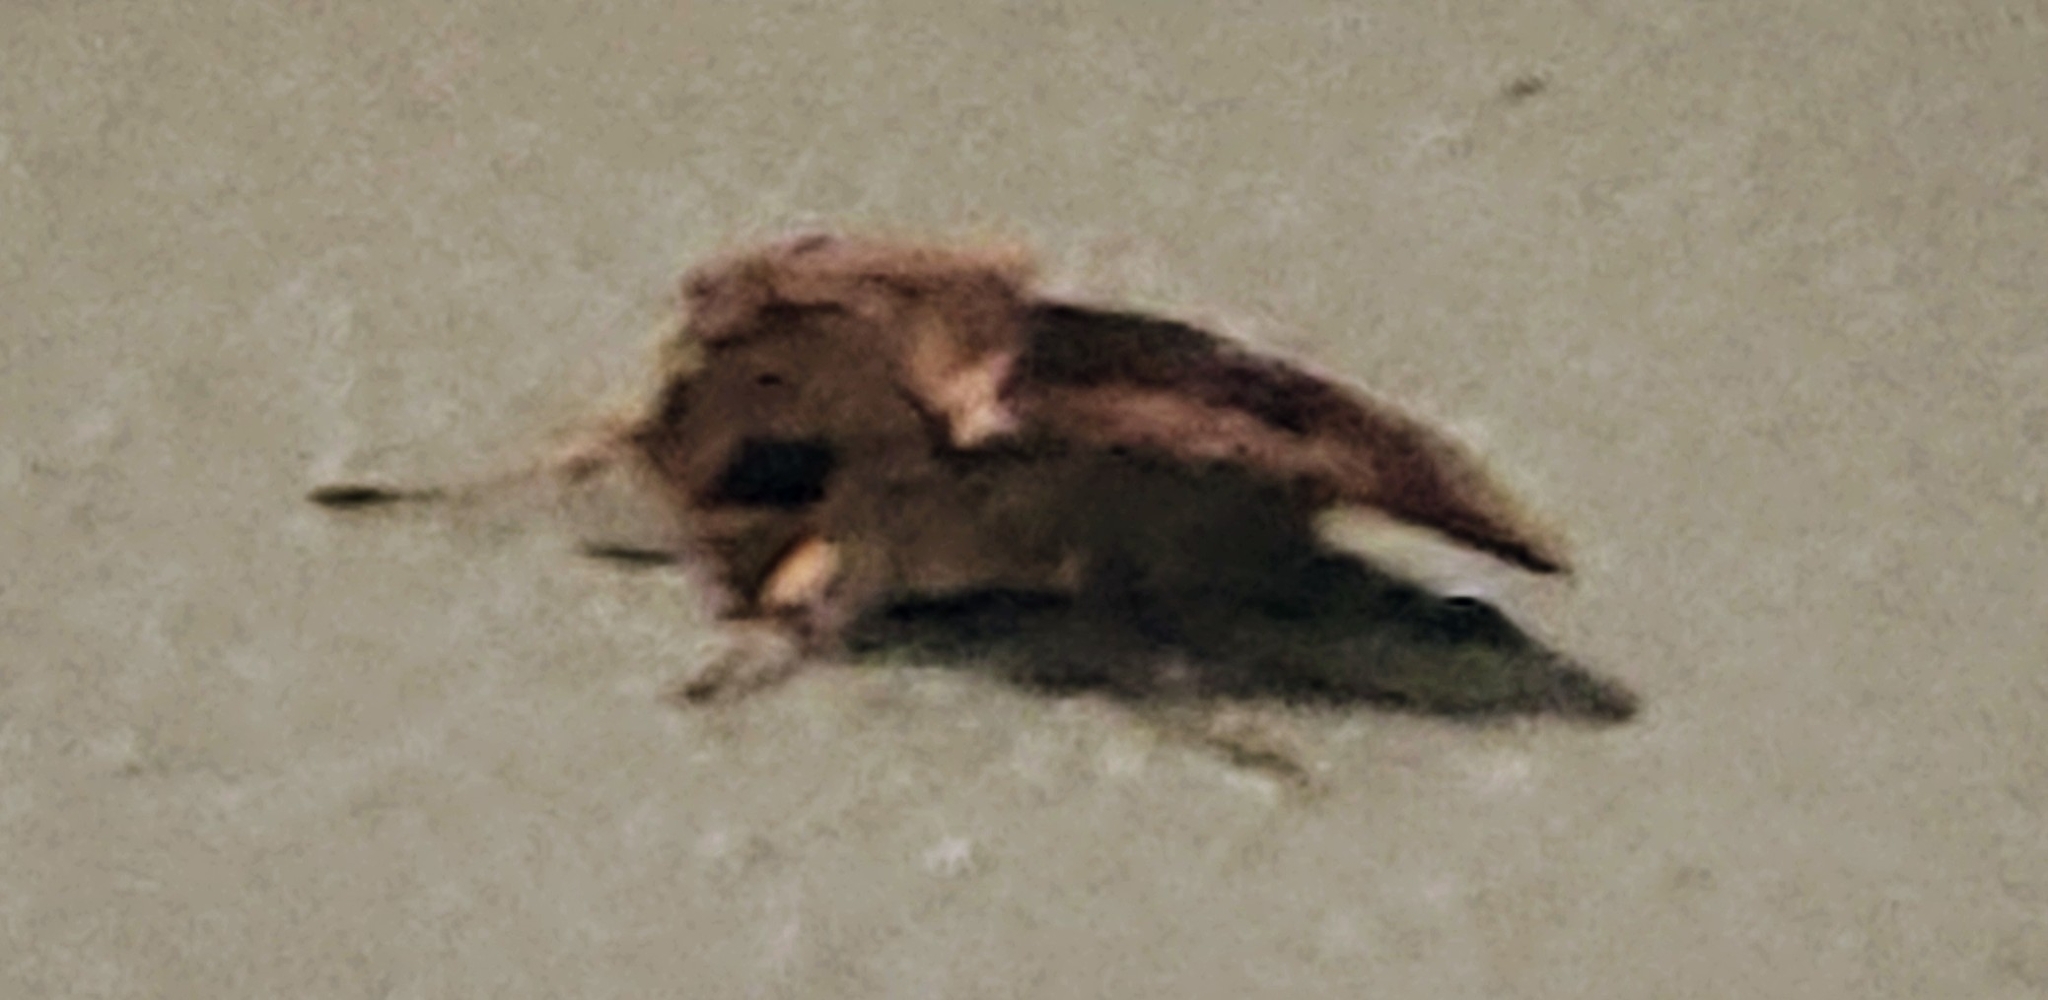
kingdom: Animalia
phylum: Arthropoda
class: Insecta
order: Lepidoptera
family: Noctuidae
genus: Feltia
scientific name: Feltia subterranea
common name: Granulate cutworm
